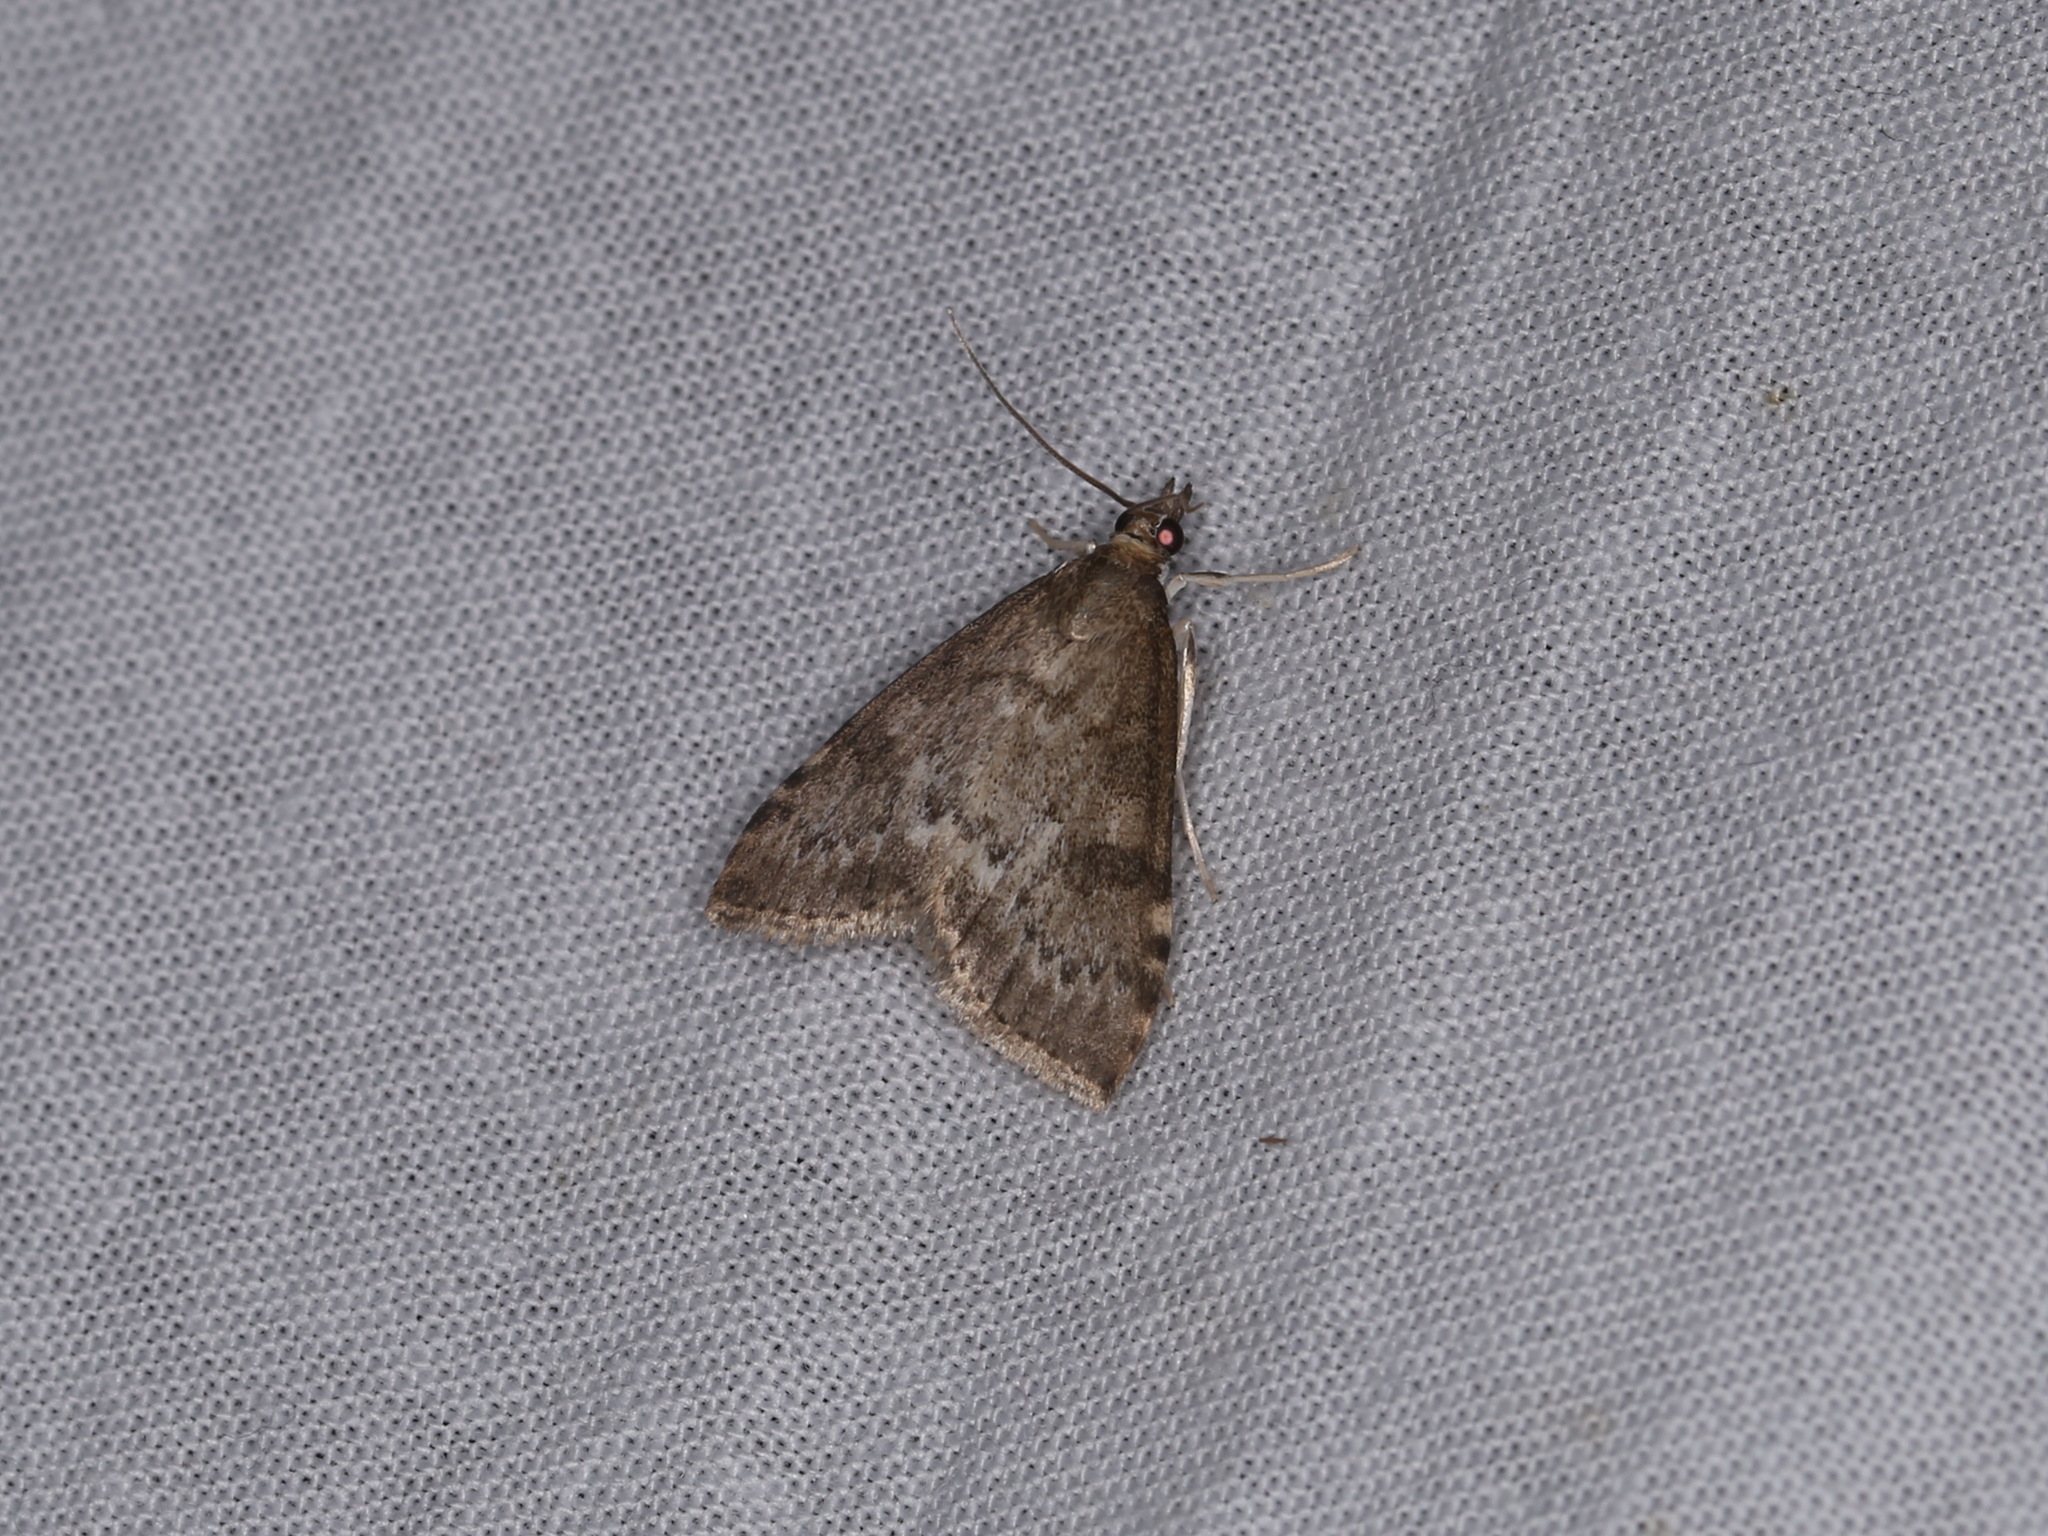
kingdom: Animalia
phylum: Arthropoda
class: Insecta
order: Lepidoptera
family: Crambidae
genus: Udea
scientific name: Udea prunalis
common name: Dusky pearl
